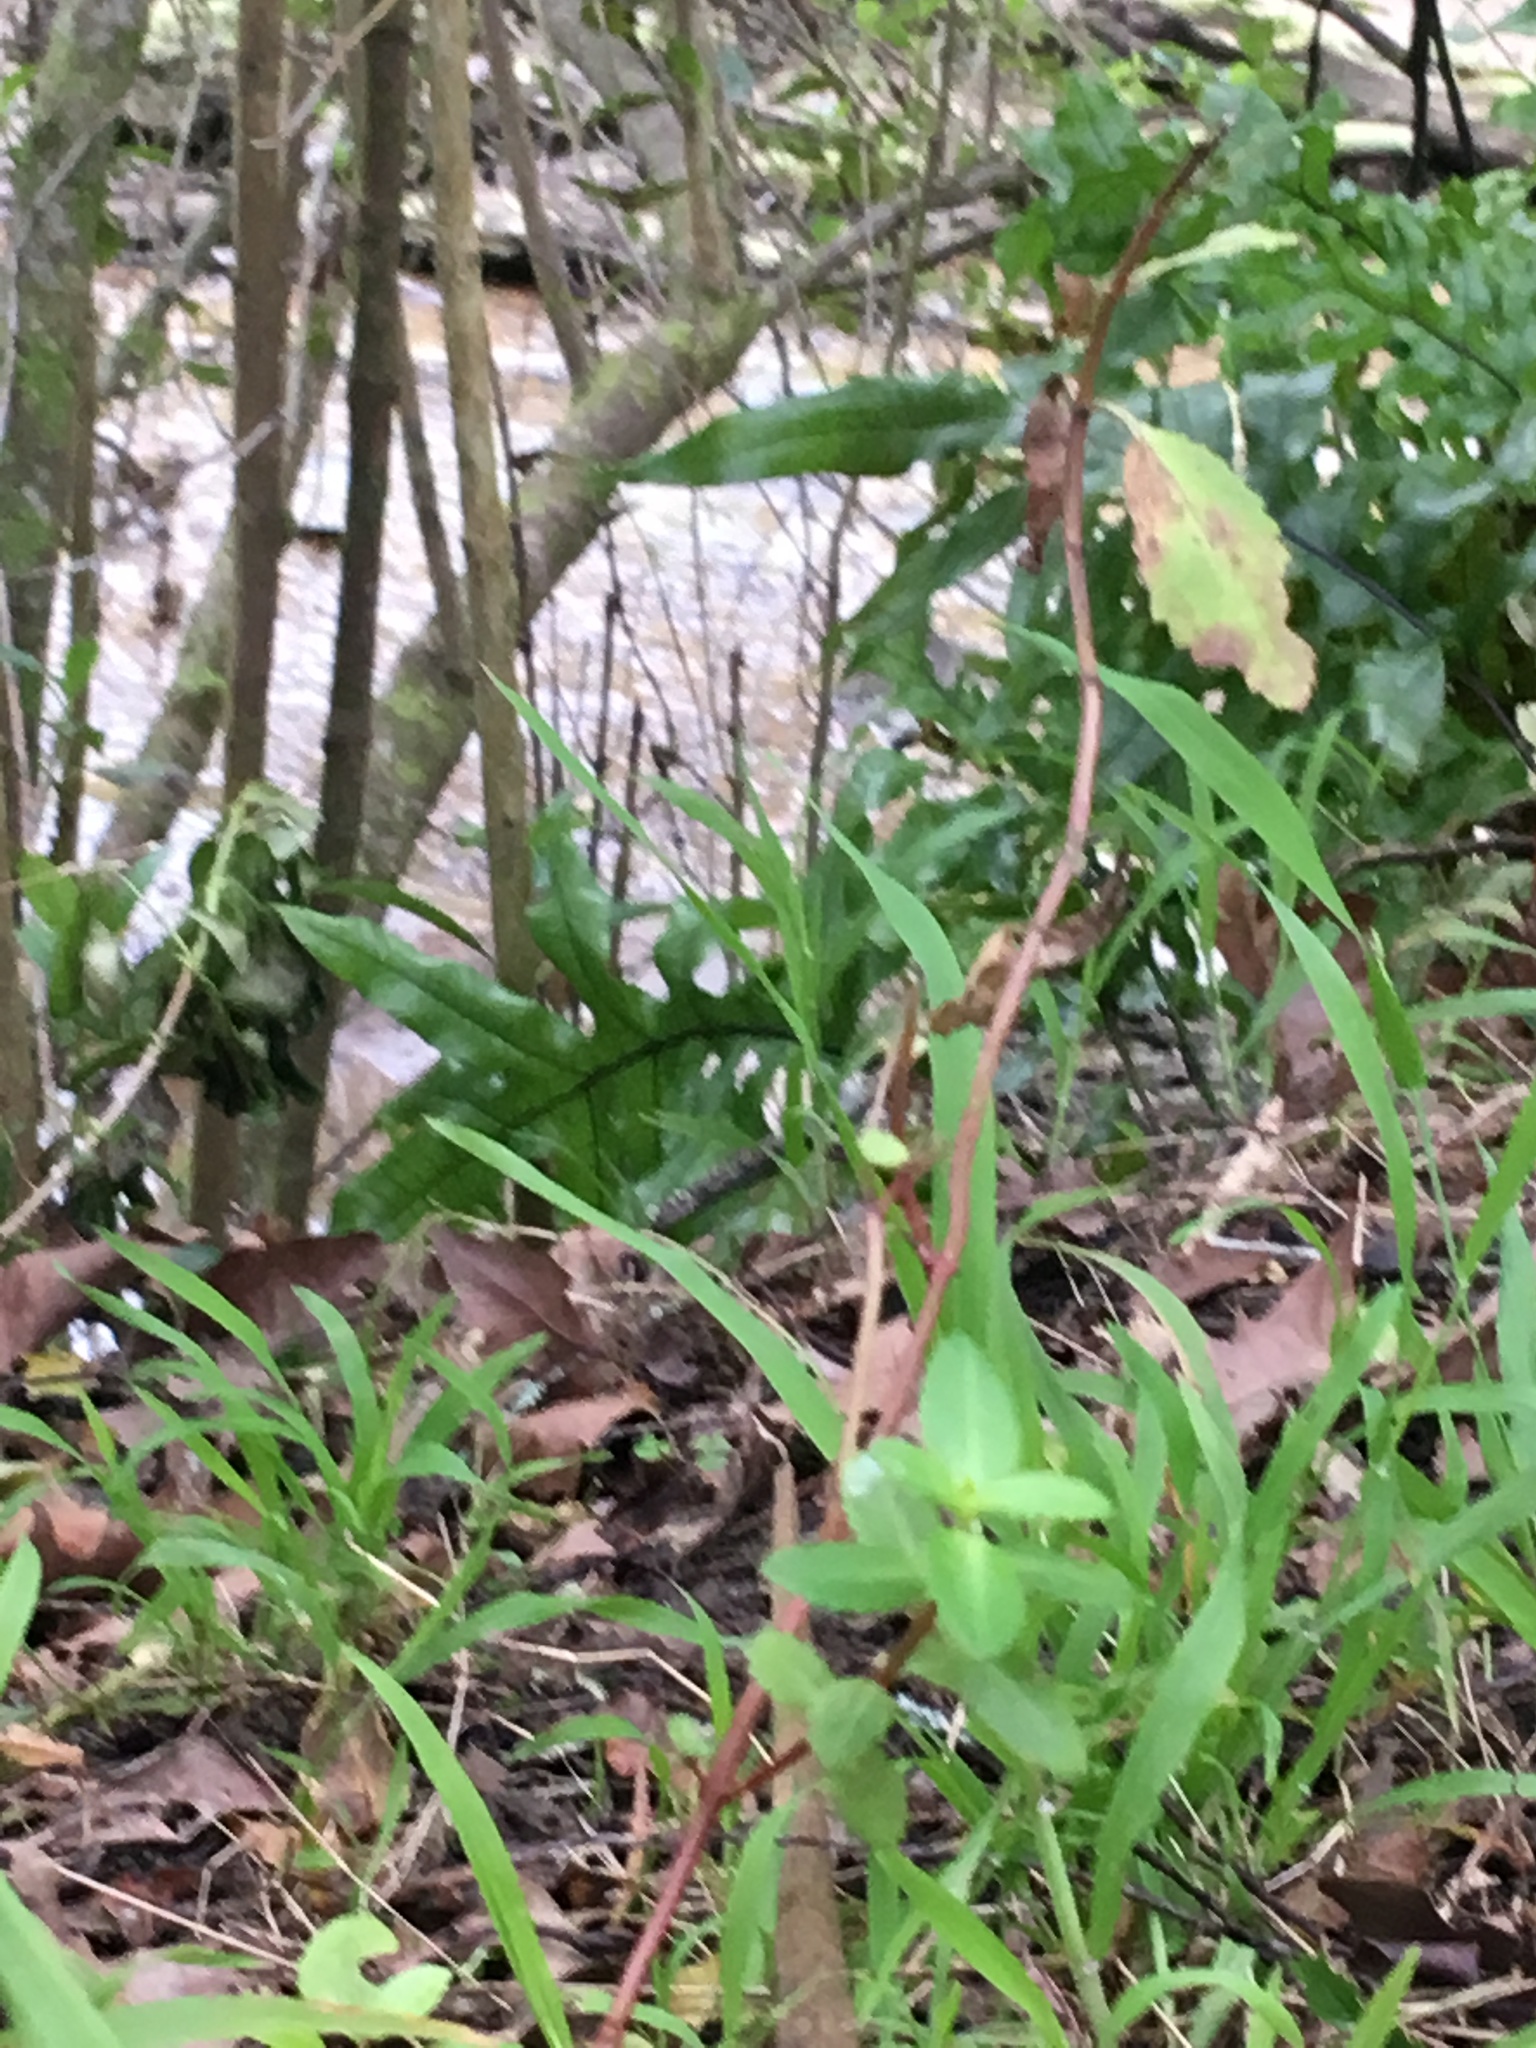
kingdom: Plantae
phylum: Tracheophyta
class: Magnoliopsida
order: Saxifragales
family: Haloragaceae
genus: Haloragis
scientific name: Haloragis erecta
